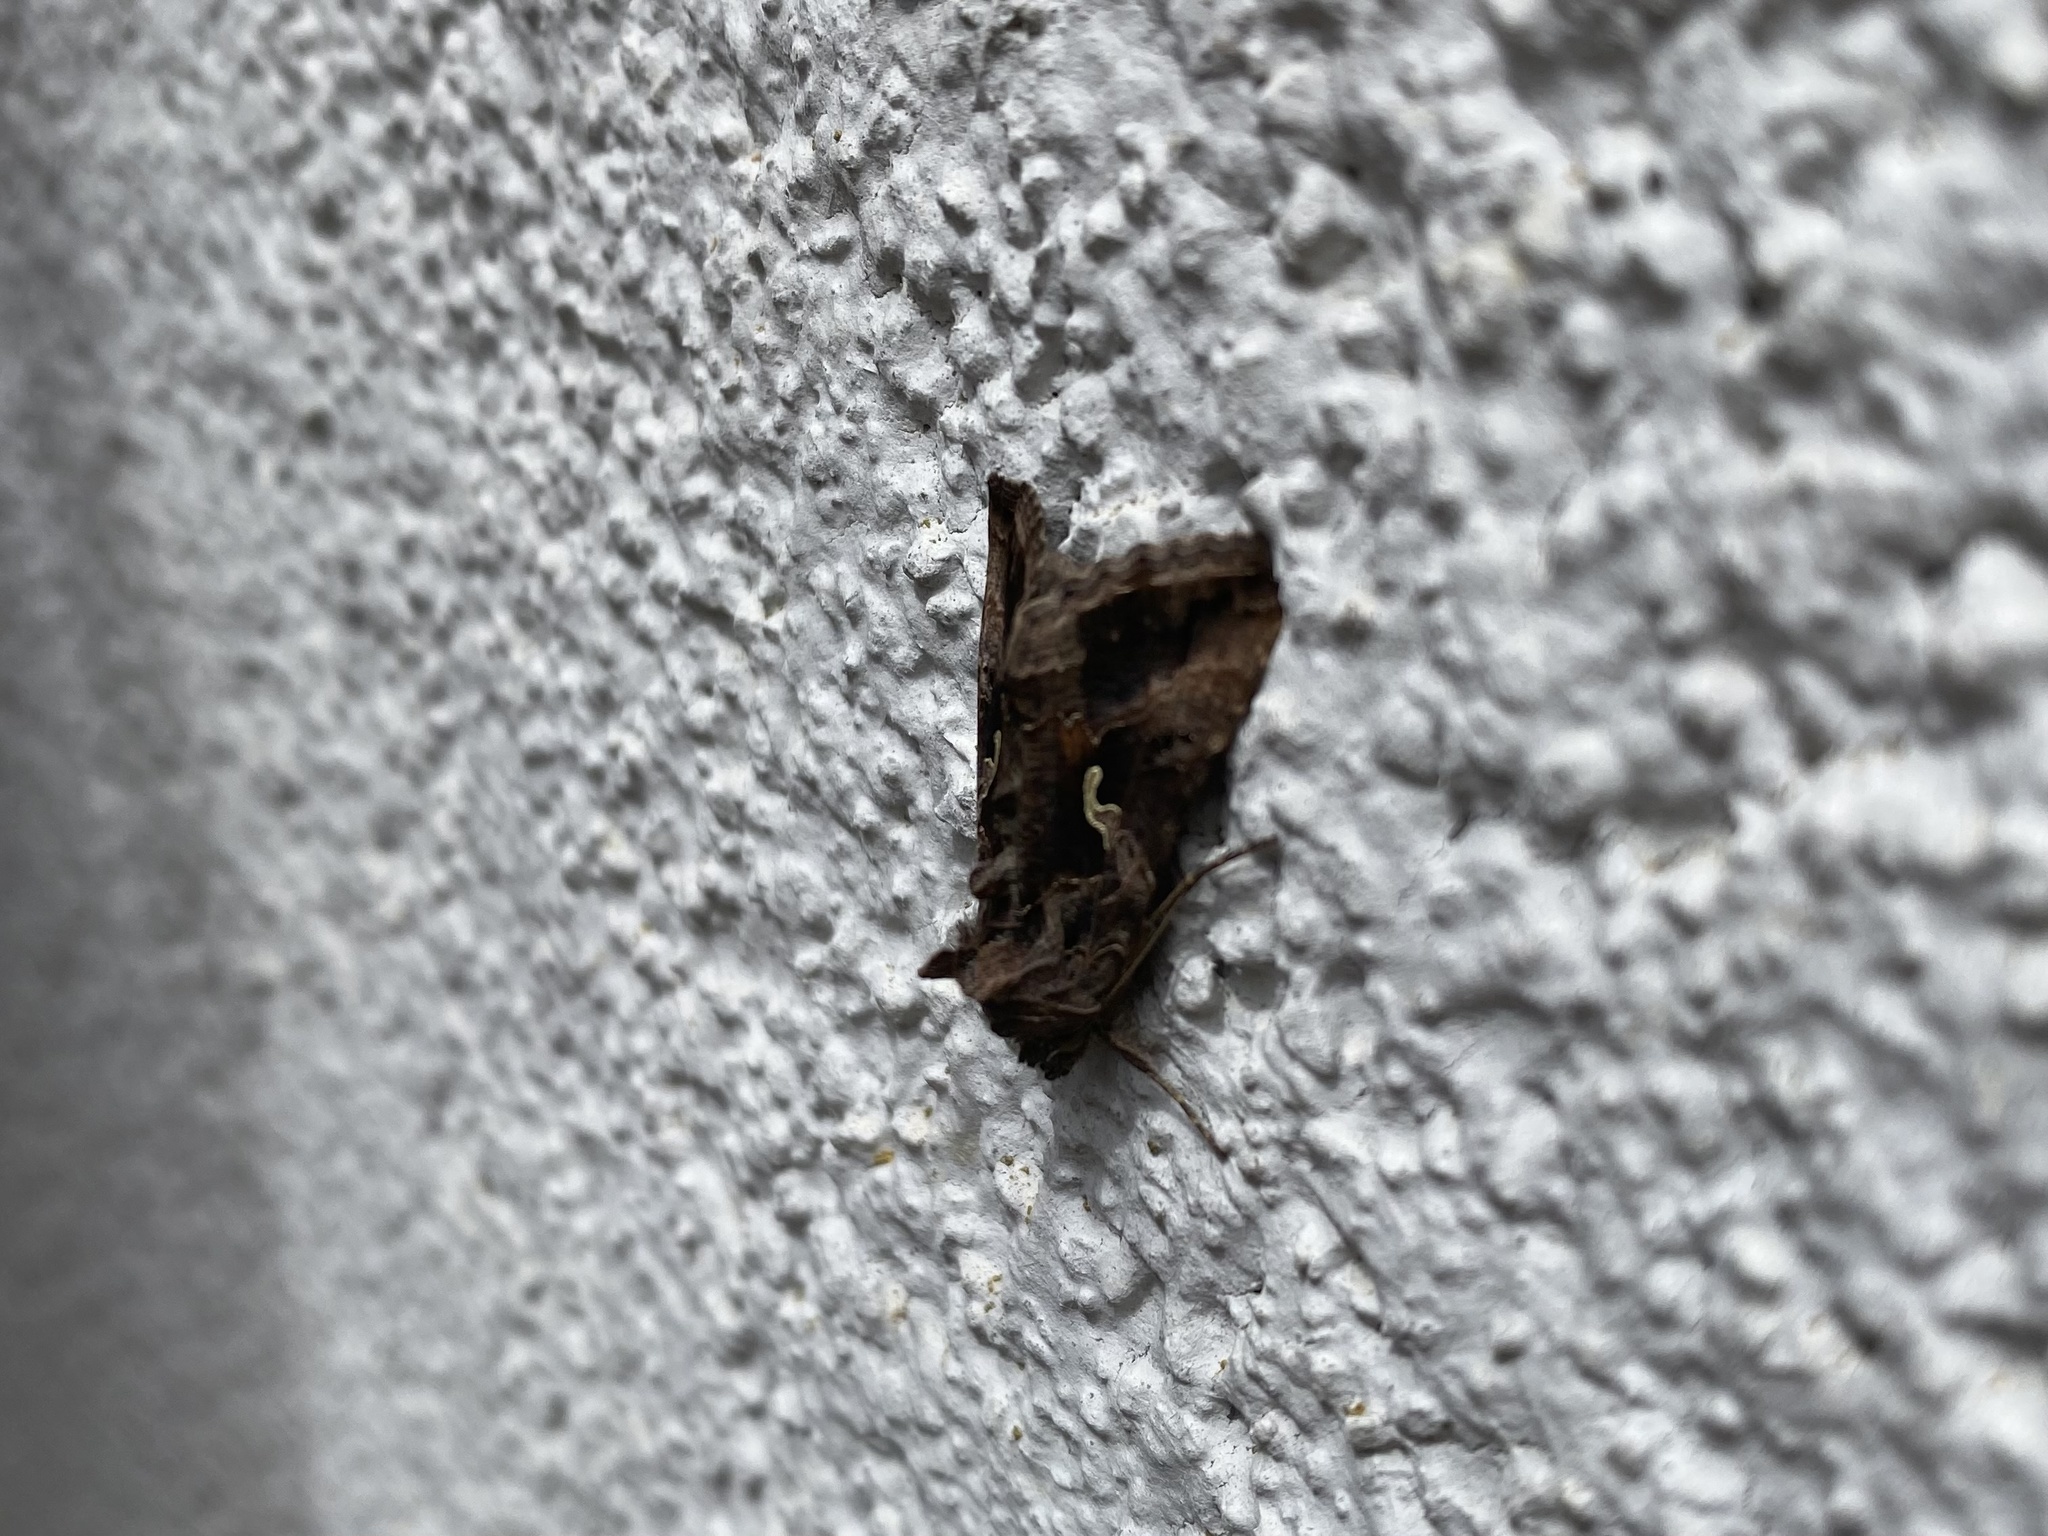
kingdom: Animalia
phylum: Arthropoda
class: Insecta
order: Lepidoptera
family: Noctuidae
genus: Autographa
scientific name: Autographa gamma
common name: Silver y
